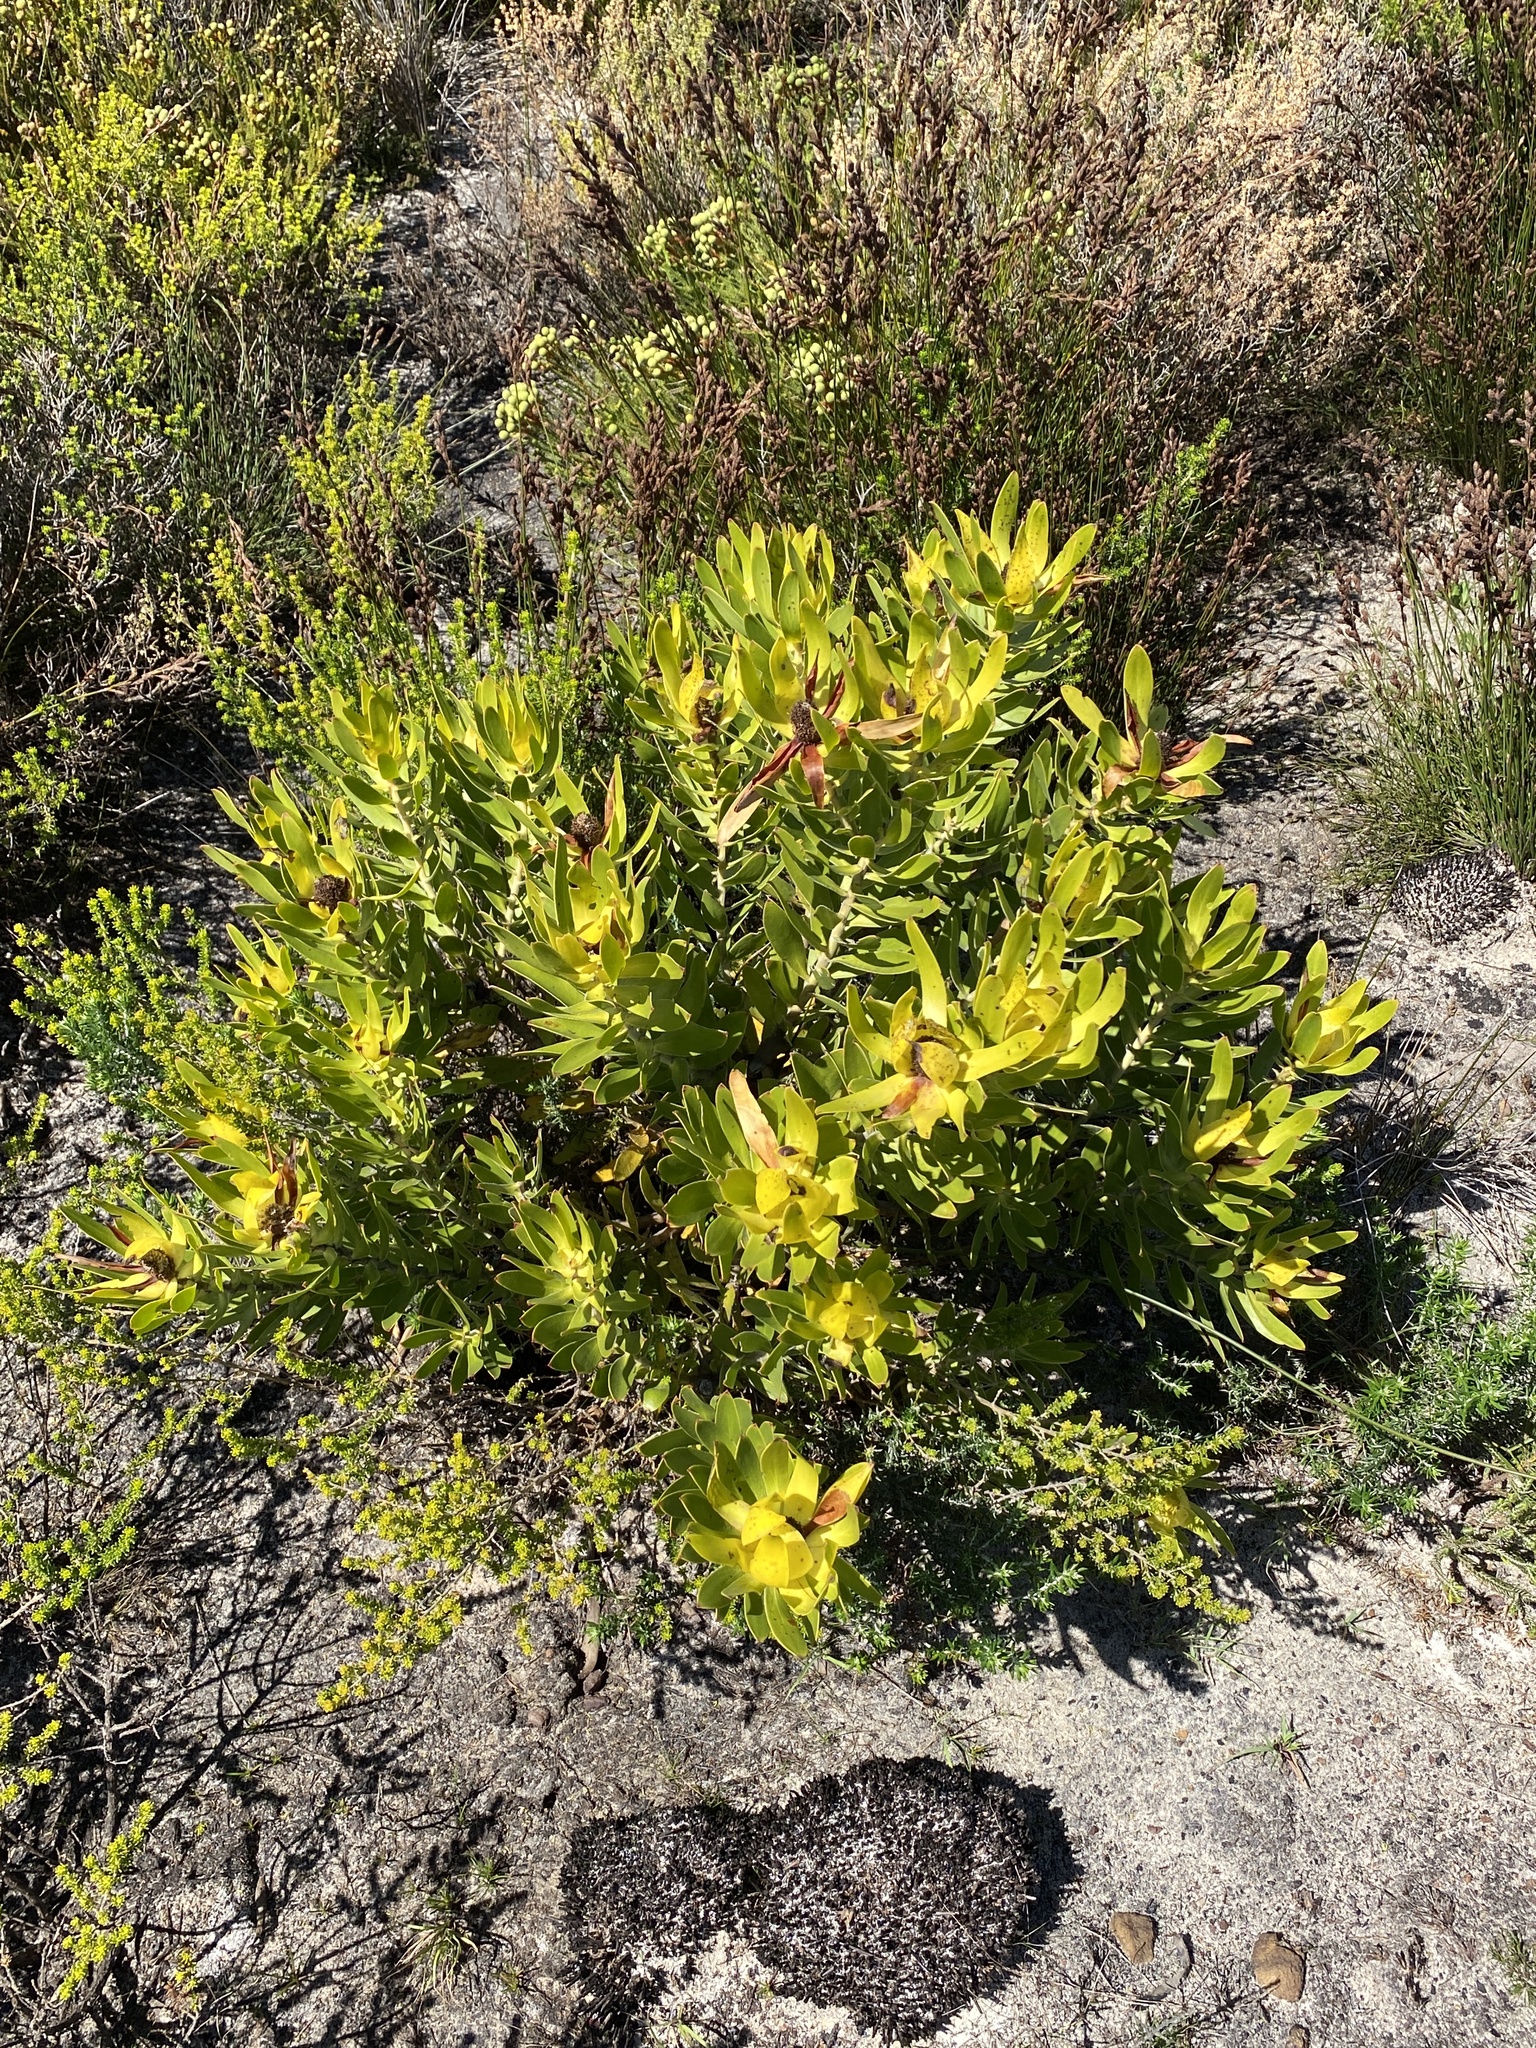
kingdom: Plantae
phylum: Tracheophyta
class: Magnoliopsida
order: Proteales
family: Proteaceae
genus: Leucadendron
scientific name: Leucadendron laureolum
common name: Golden sunshinebush
